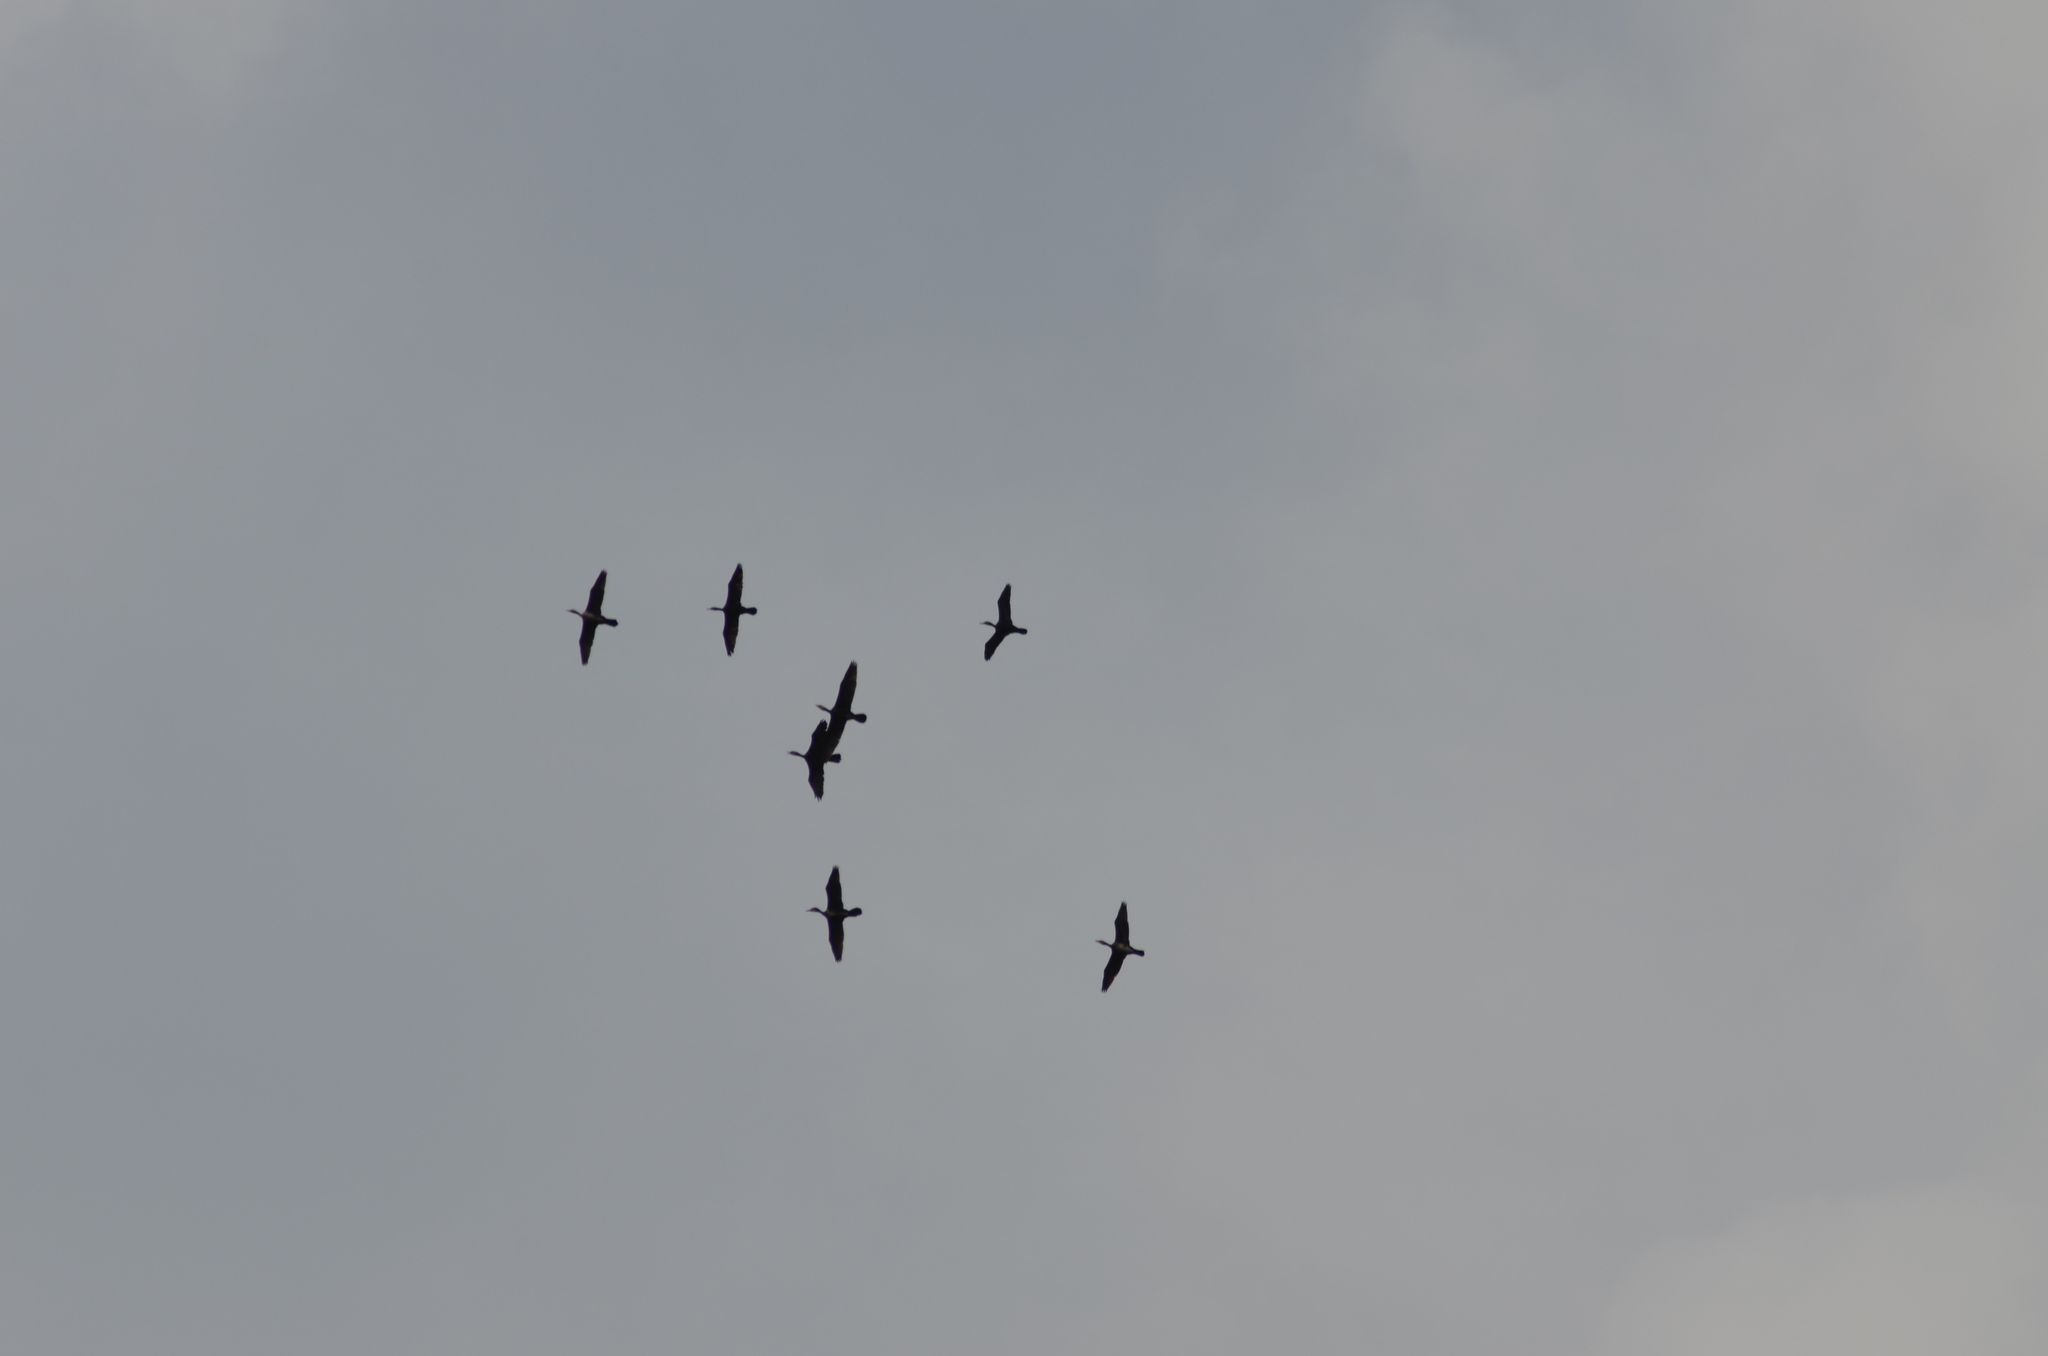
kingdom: Animalia
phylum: Chordata
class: Aves
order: Suliformes
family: Phalacrocoracidae
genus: Phalacrocorax
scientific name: Phalacrocorax carbo
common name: Great cormorant
